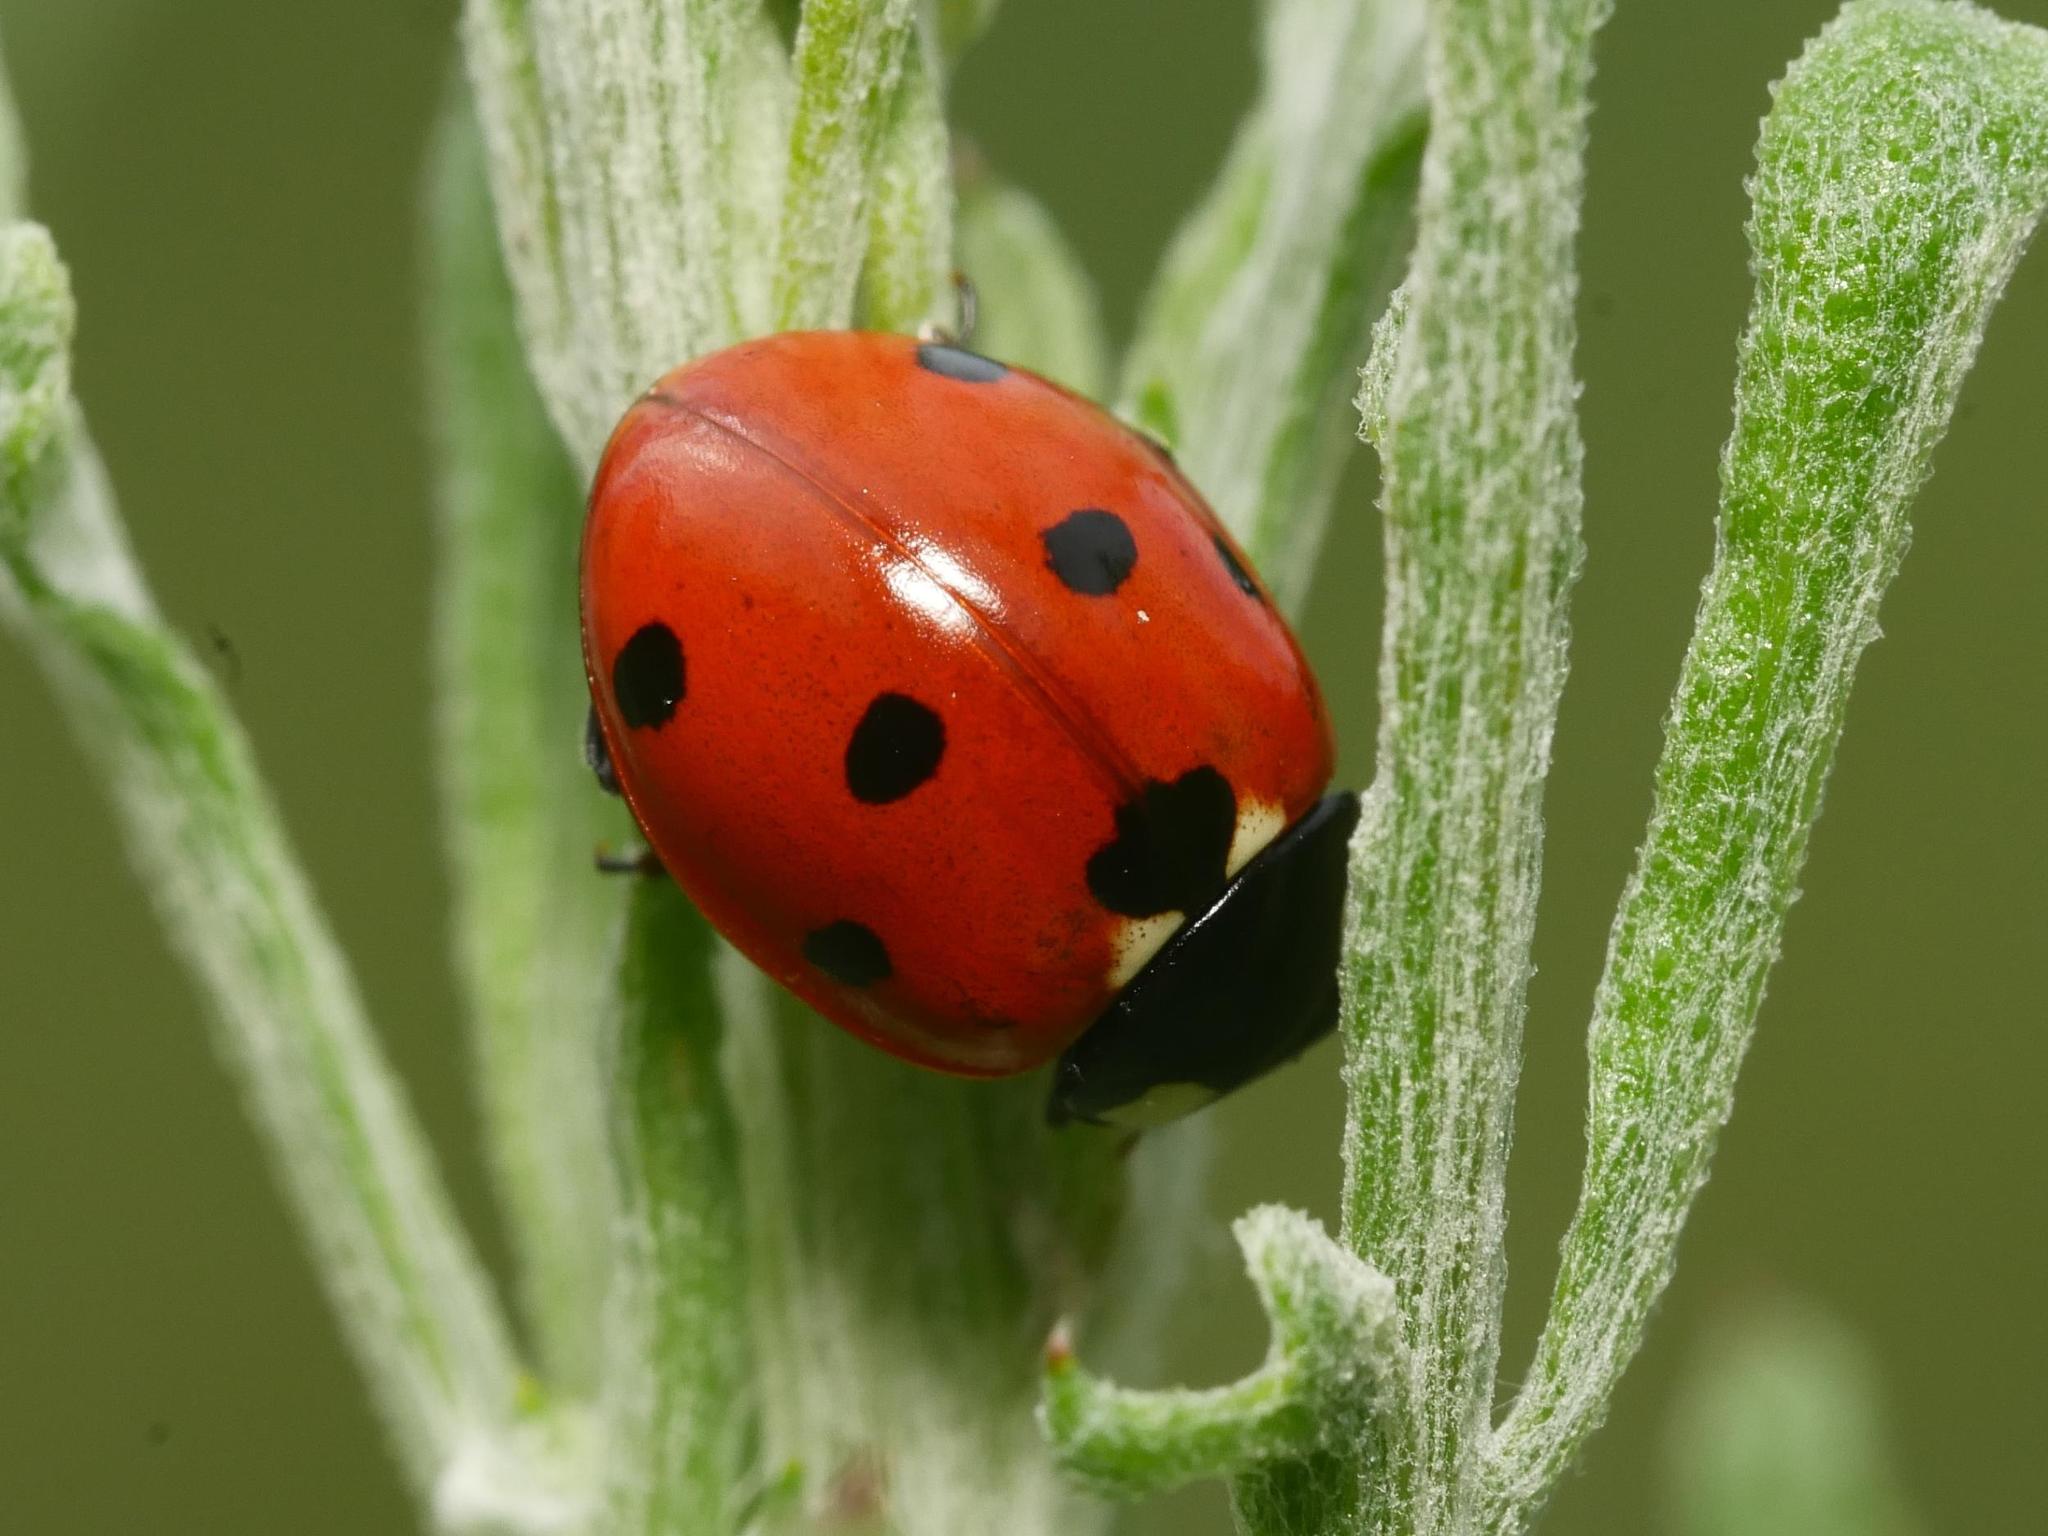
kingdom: Animalia
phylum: Arthropoda
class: Insecta
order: Coleoptera
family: Coccinellidae
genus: Coccinella
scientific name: Coccinella septempunctata
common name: Sevenspotted lady beetle
